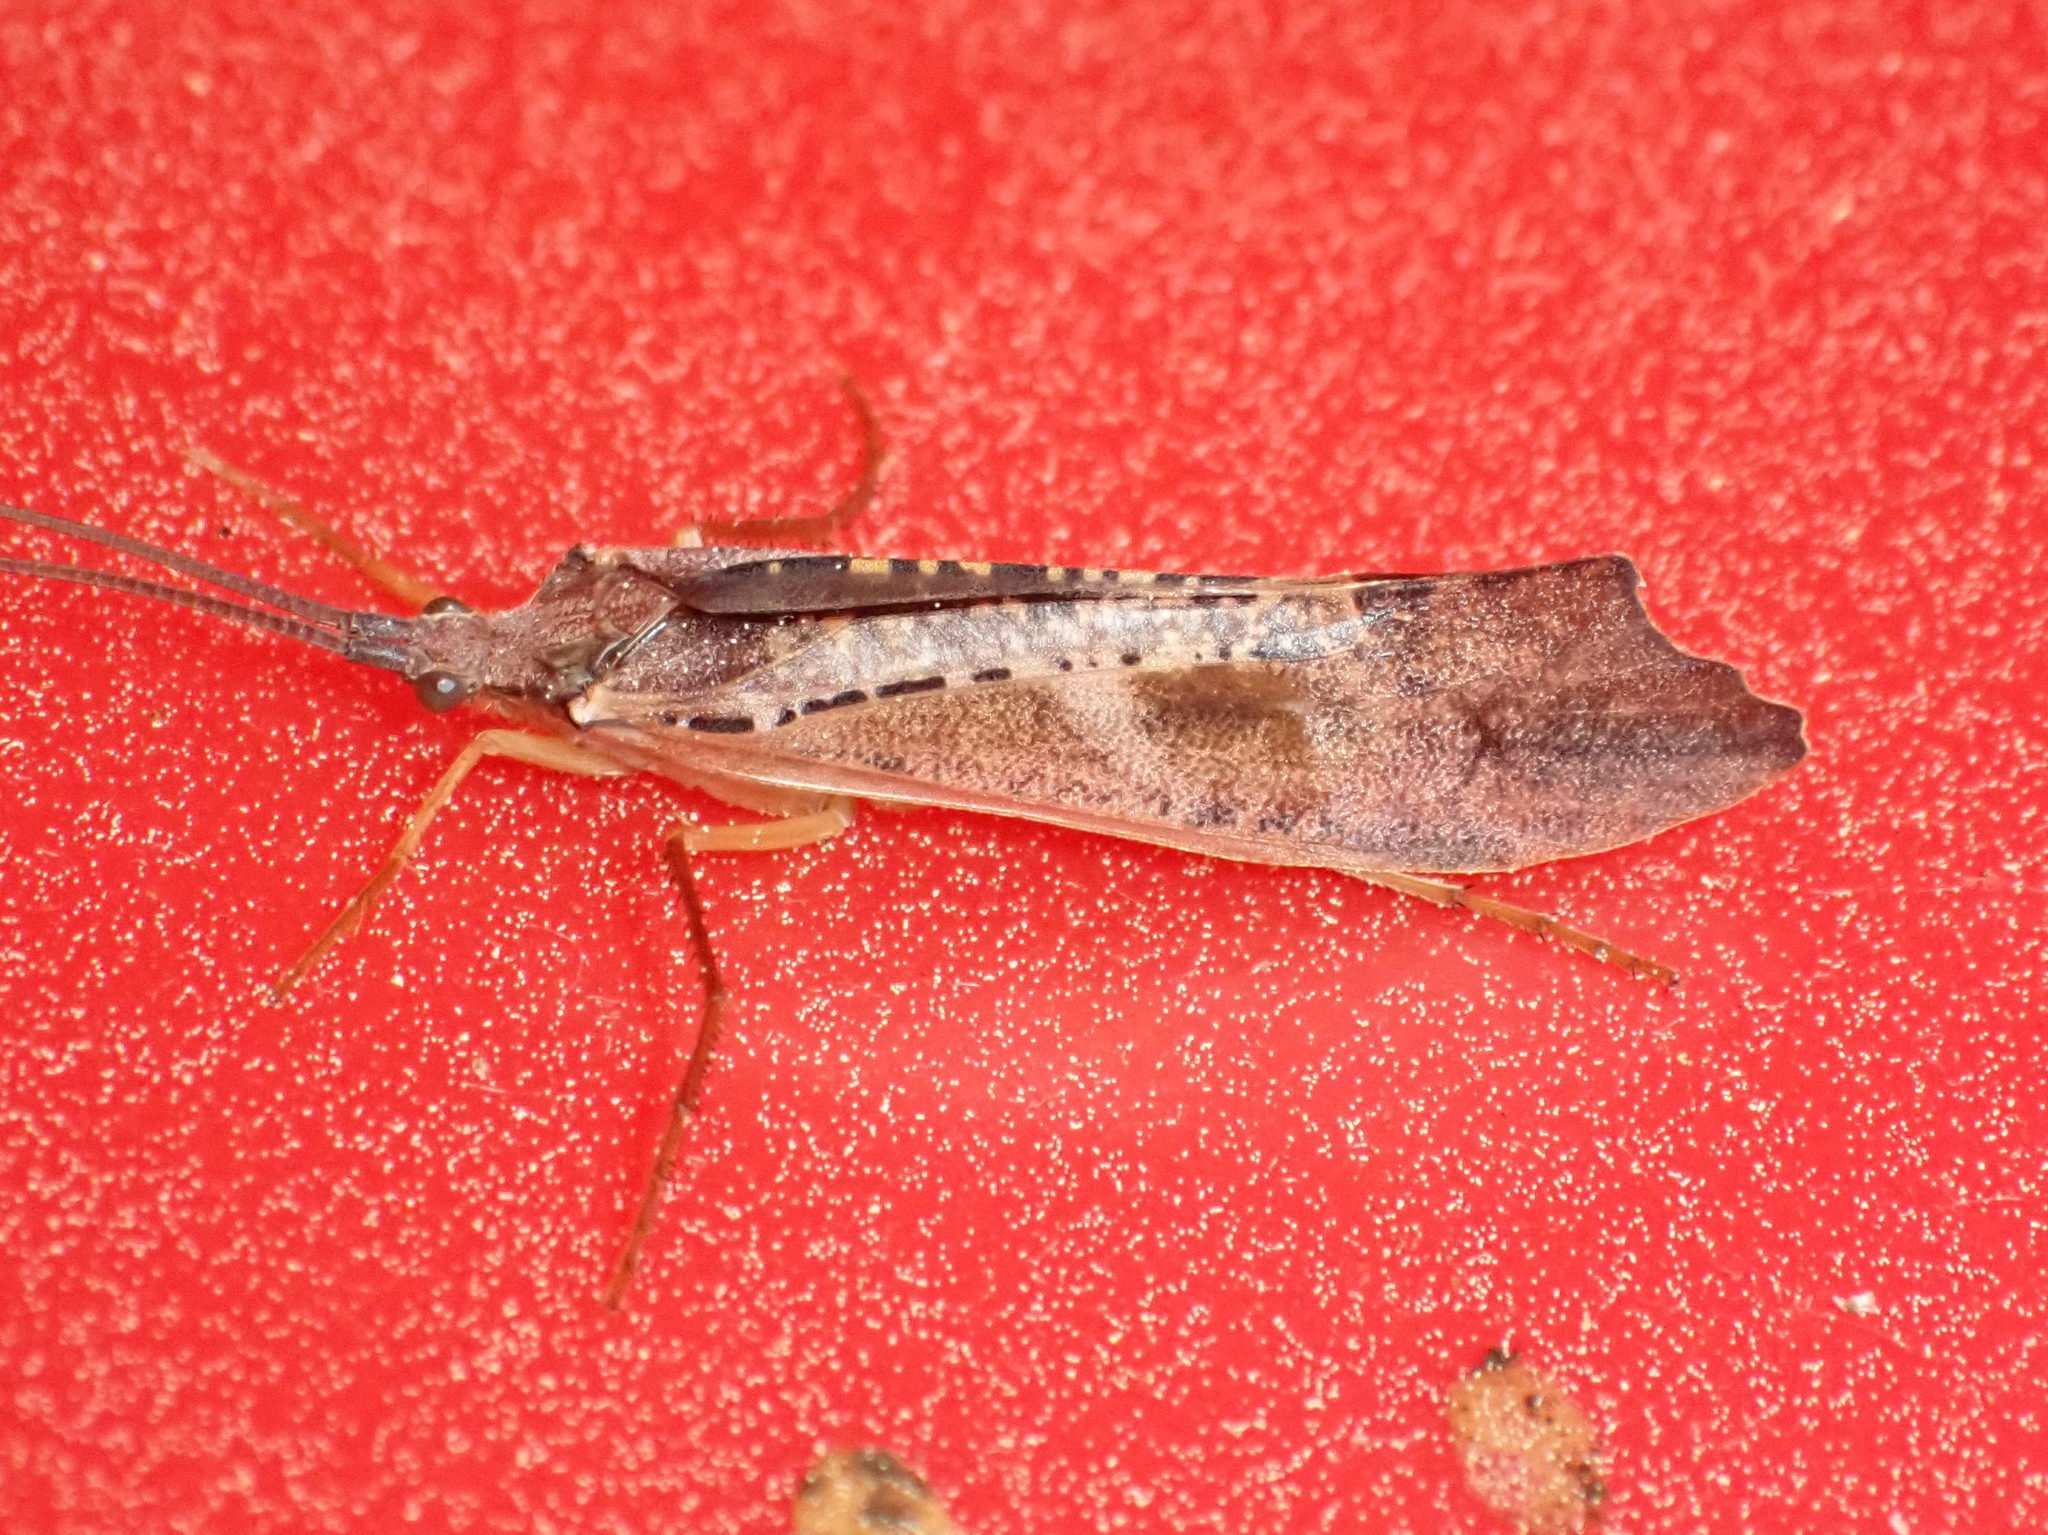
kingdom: Animalia
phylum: Arthropoda
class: Insecta
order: Trichoptera
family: Limnephilidae
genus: Nemotaulius
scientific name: Nemotaulius hostilis
